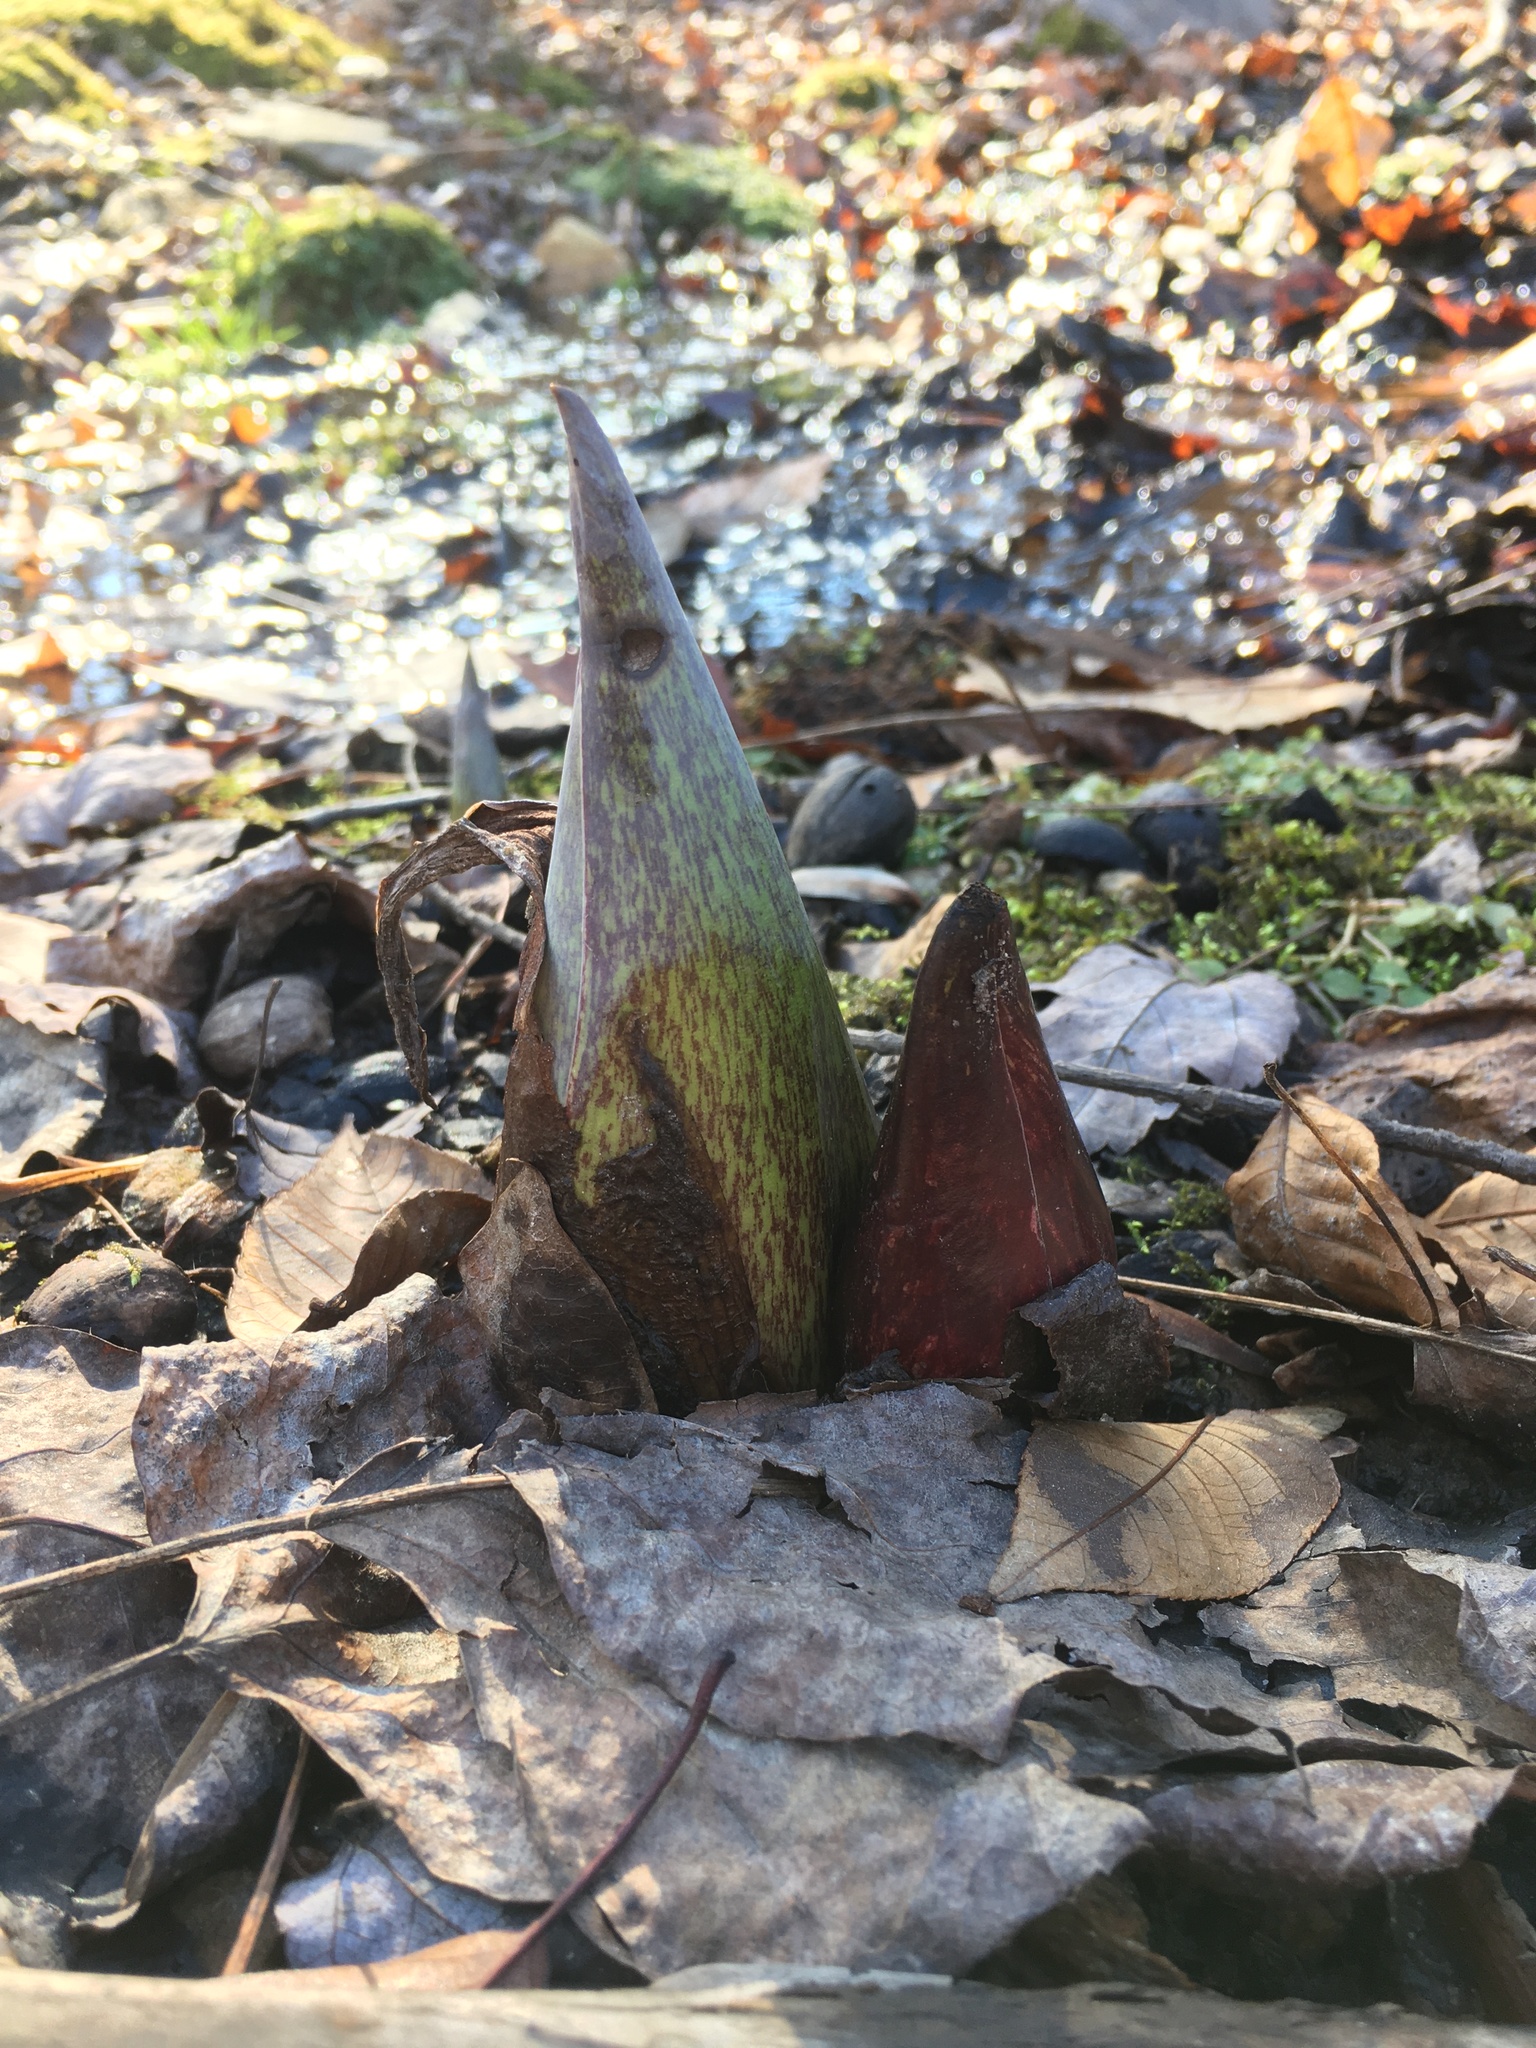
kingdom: Plantae
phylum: Tracheophyta
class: Liliopsida
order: Alismatales
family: Araceae
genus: Symplocarpus
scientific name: Symplocarpus foetidus
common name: Eastern skunk cabbage
